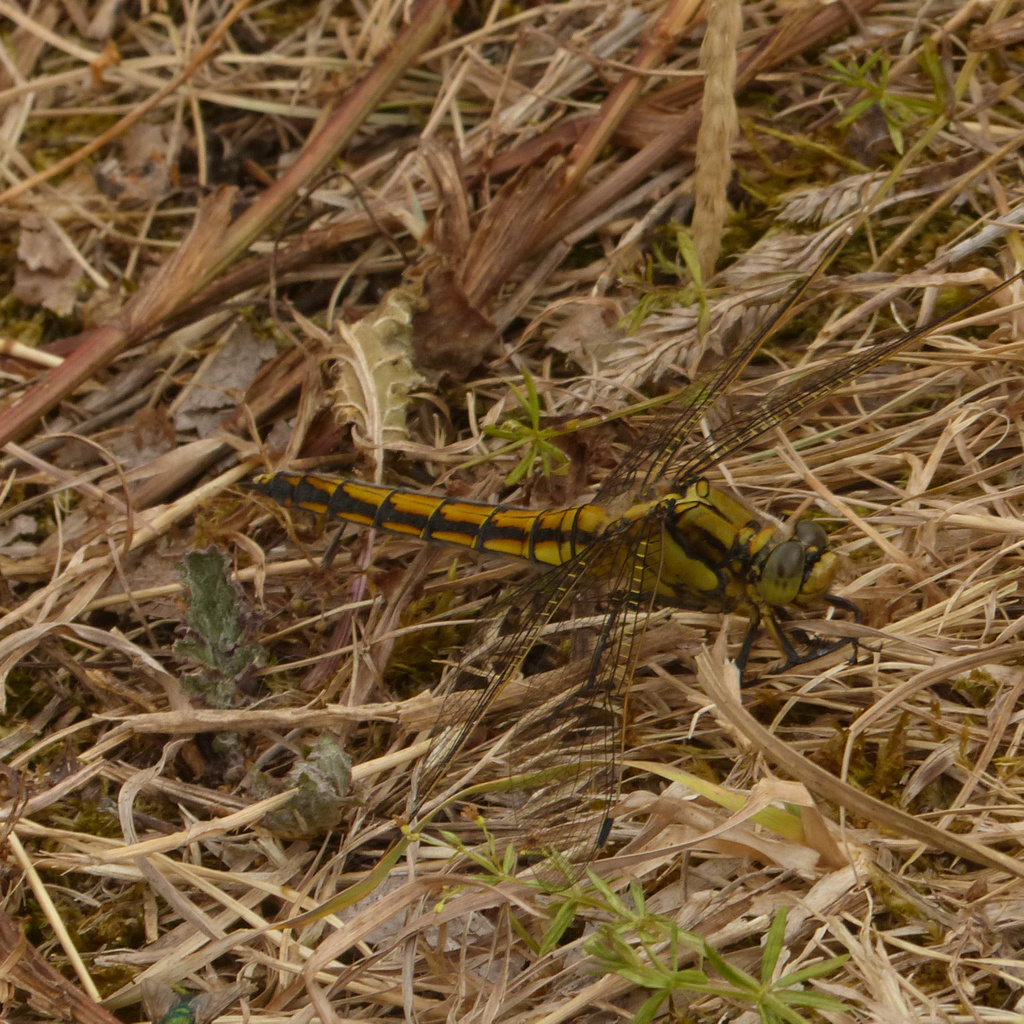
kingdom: Animalia
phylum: Arthropoda
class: Insecta
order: Odonata
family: Libellulidae
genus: Orthetrum
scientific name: Orthetrum cancellatum
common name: Black-tailed skimmer
